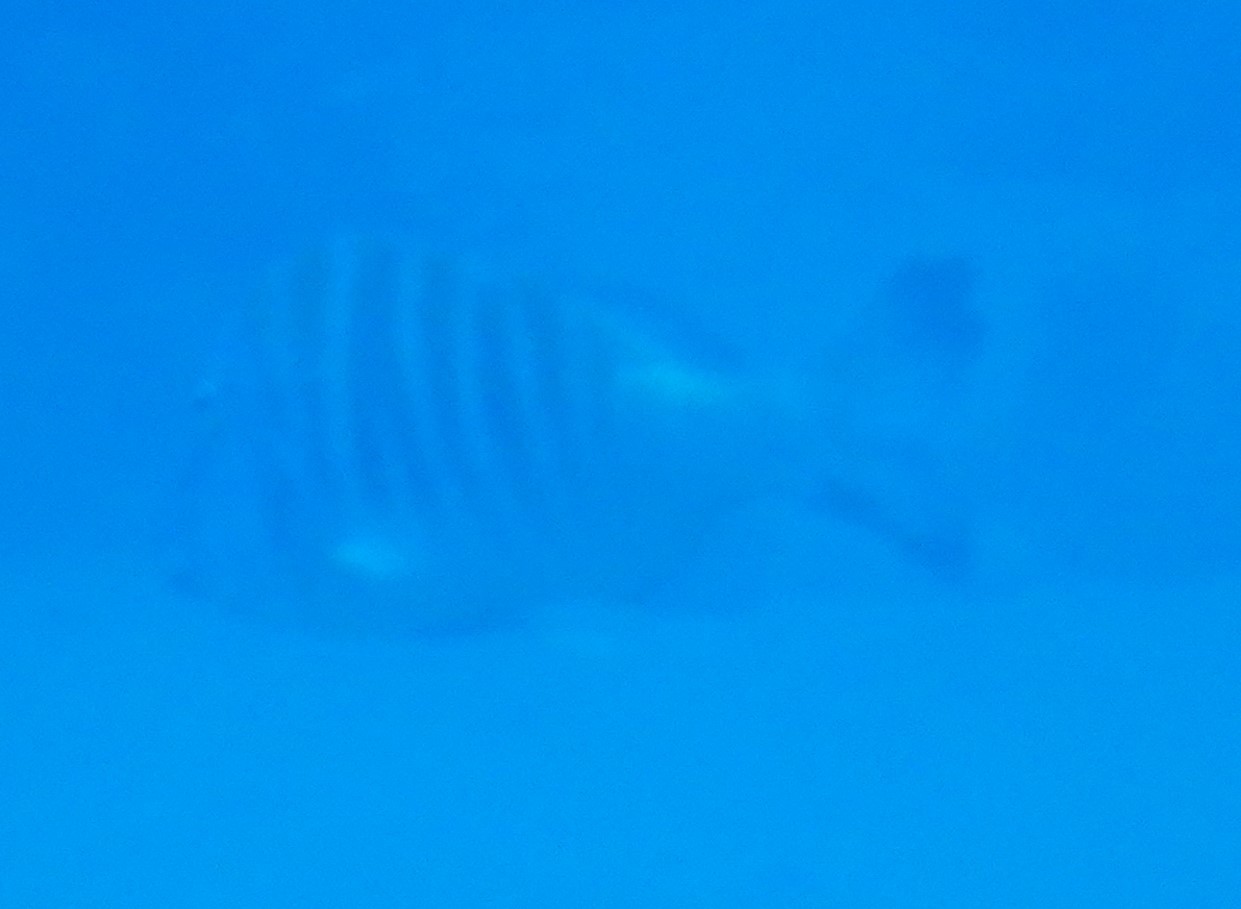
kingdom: Animalia
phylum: Chordata
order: Perciformes
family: Lethrinidae
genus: Lethrinus
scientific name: Lethrinus mahsena
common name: Sky emperor
